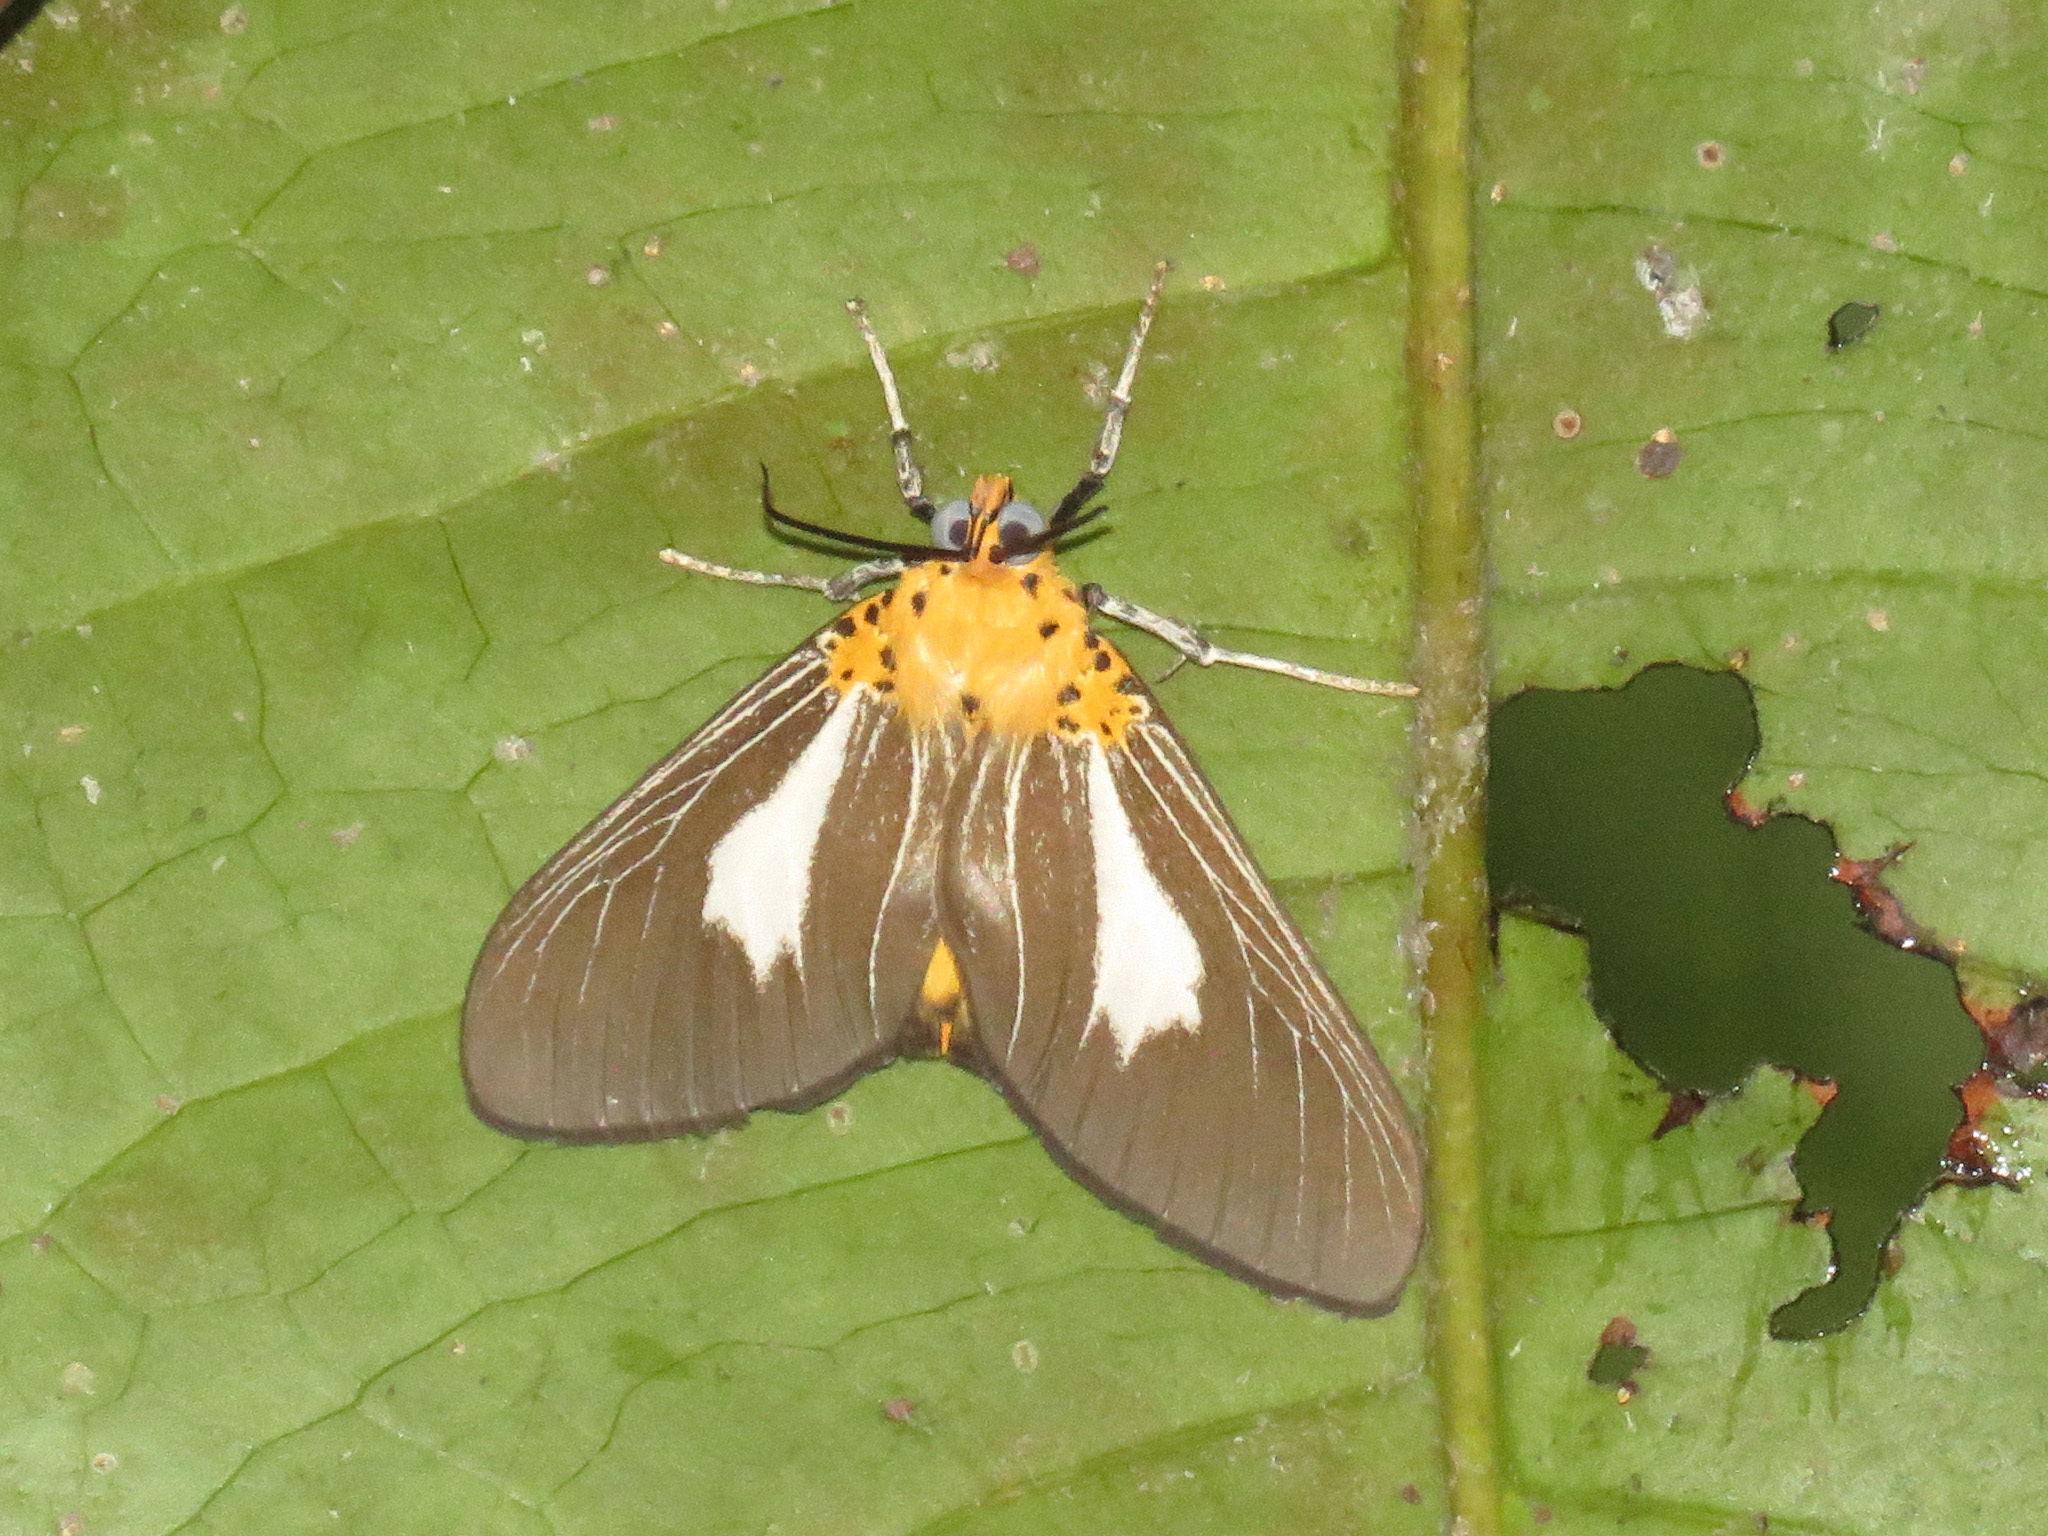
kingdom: Animalia
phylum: Arthropoda
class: Insecta
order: Lepidoptera
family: Erebidae
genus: Asota
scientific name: Asota subsimilis
